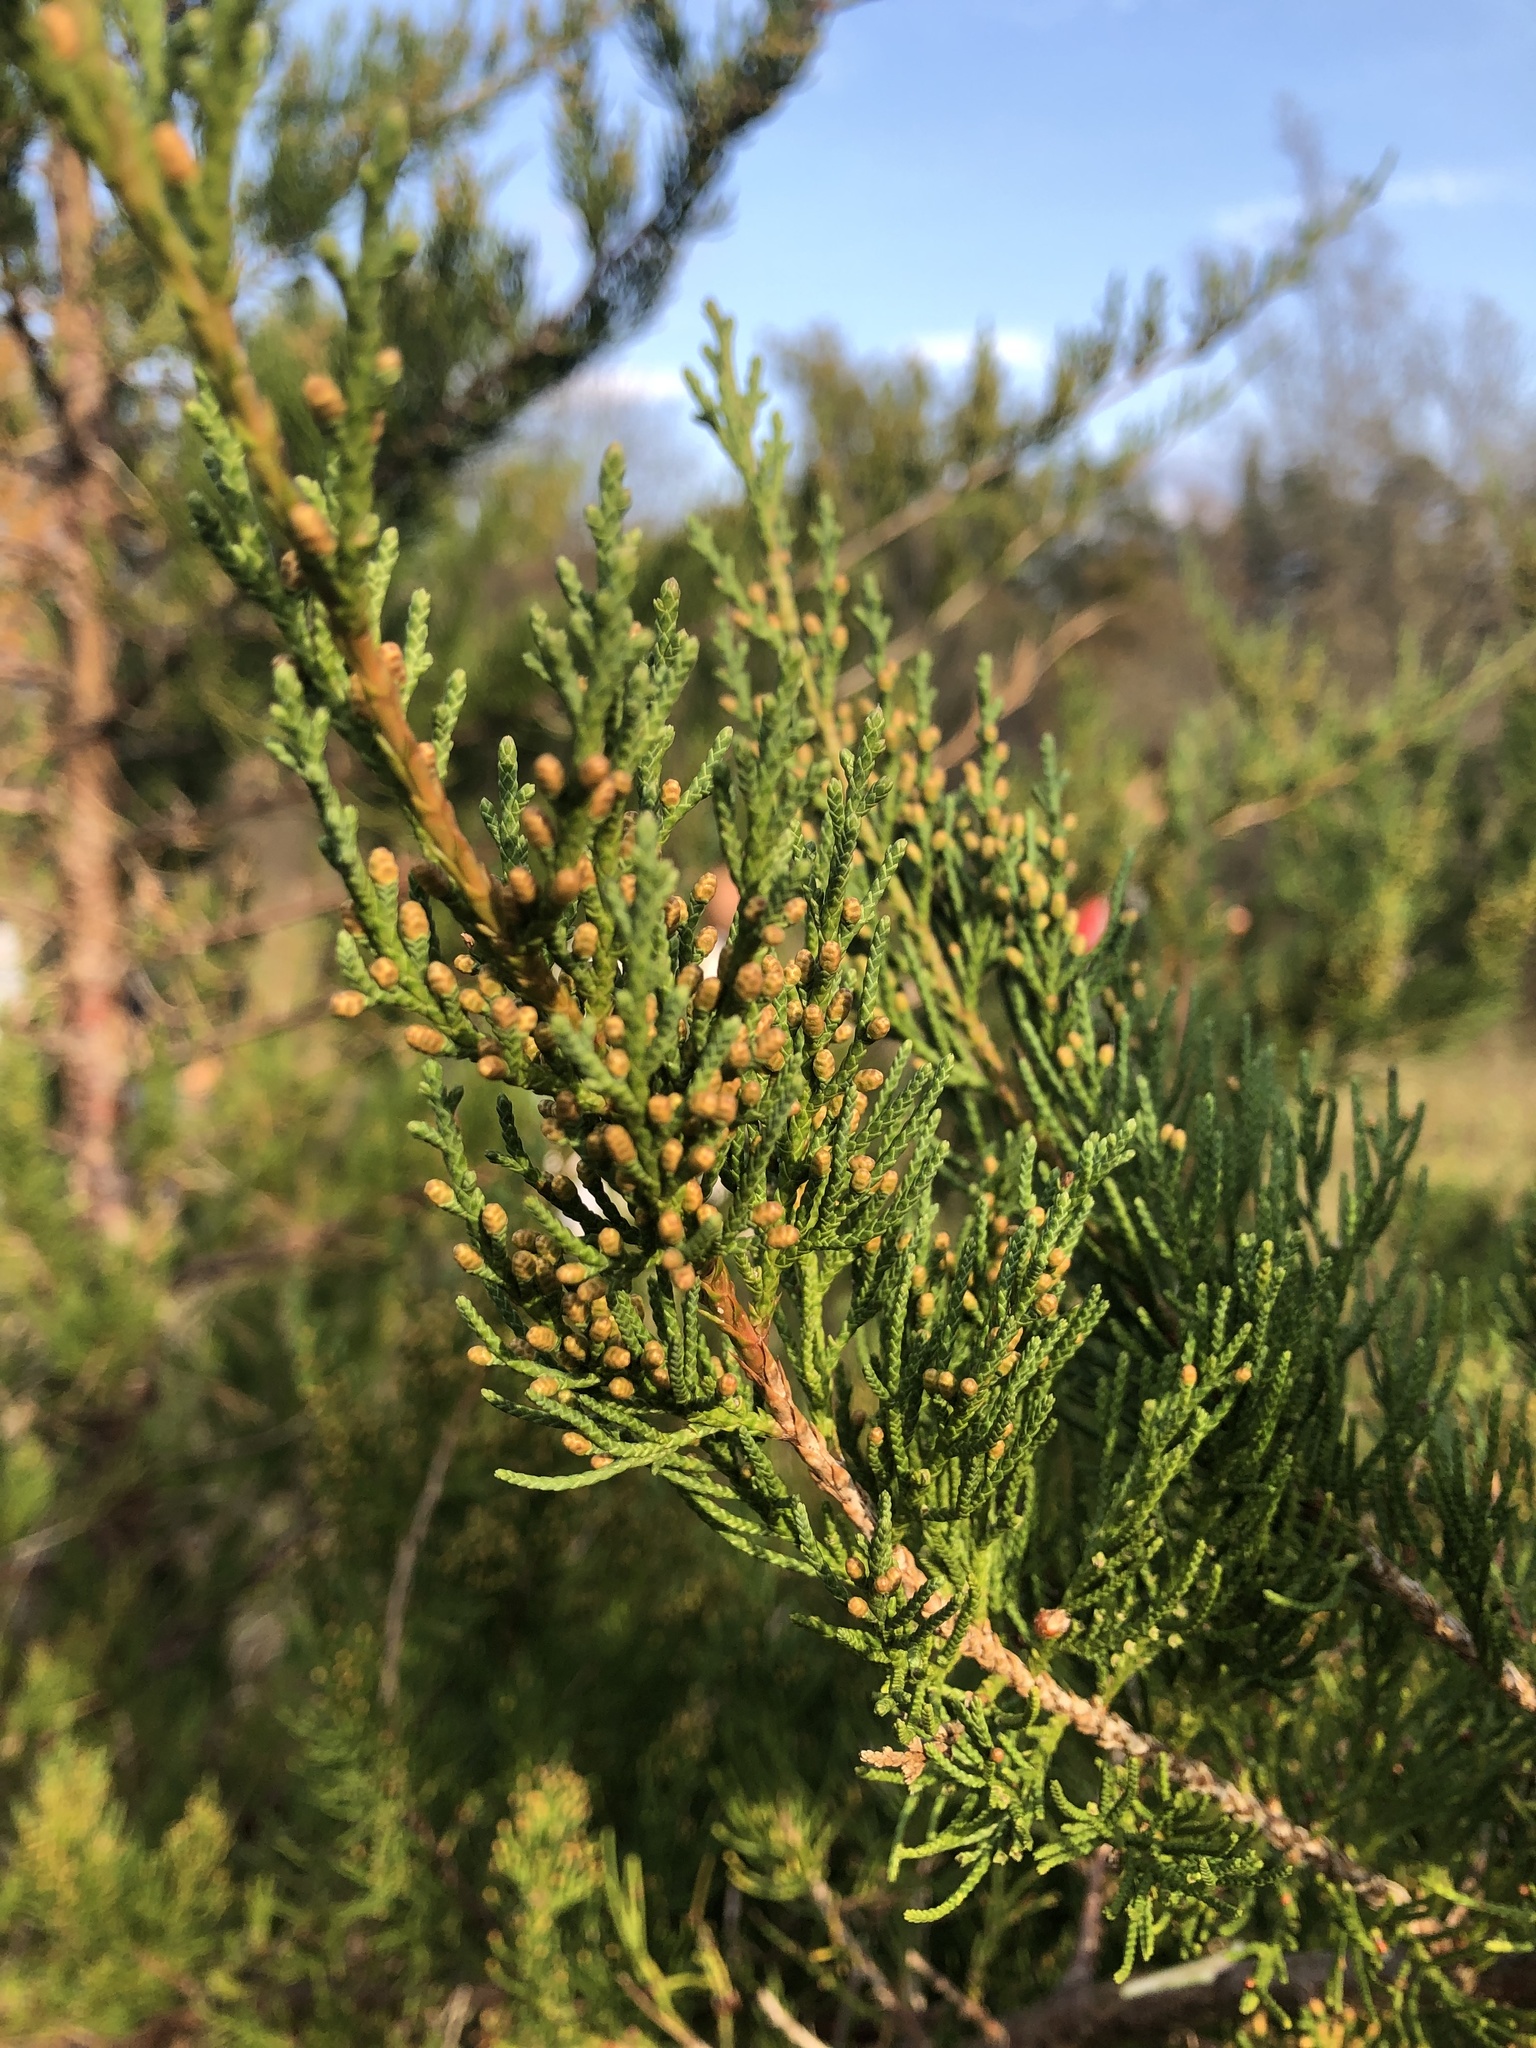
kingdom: Plantae
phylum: Tracheophyta
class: Pinopsida
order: Pinales
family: Cupressaceae
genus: Juniperus
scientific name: Juniperus virginiana
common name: Red juniper
